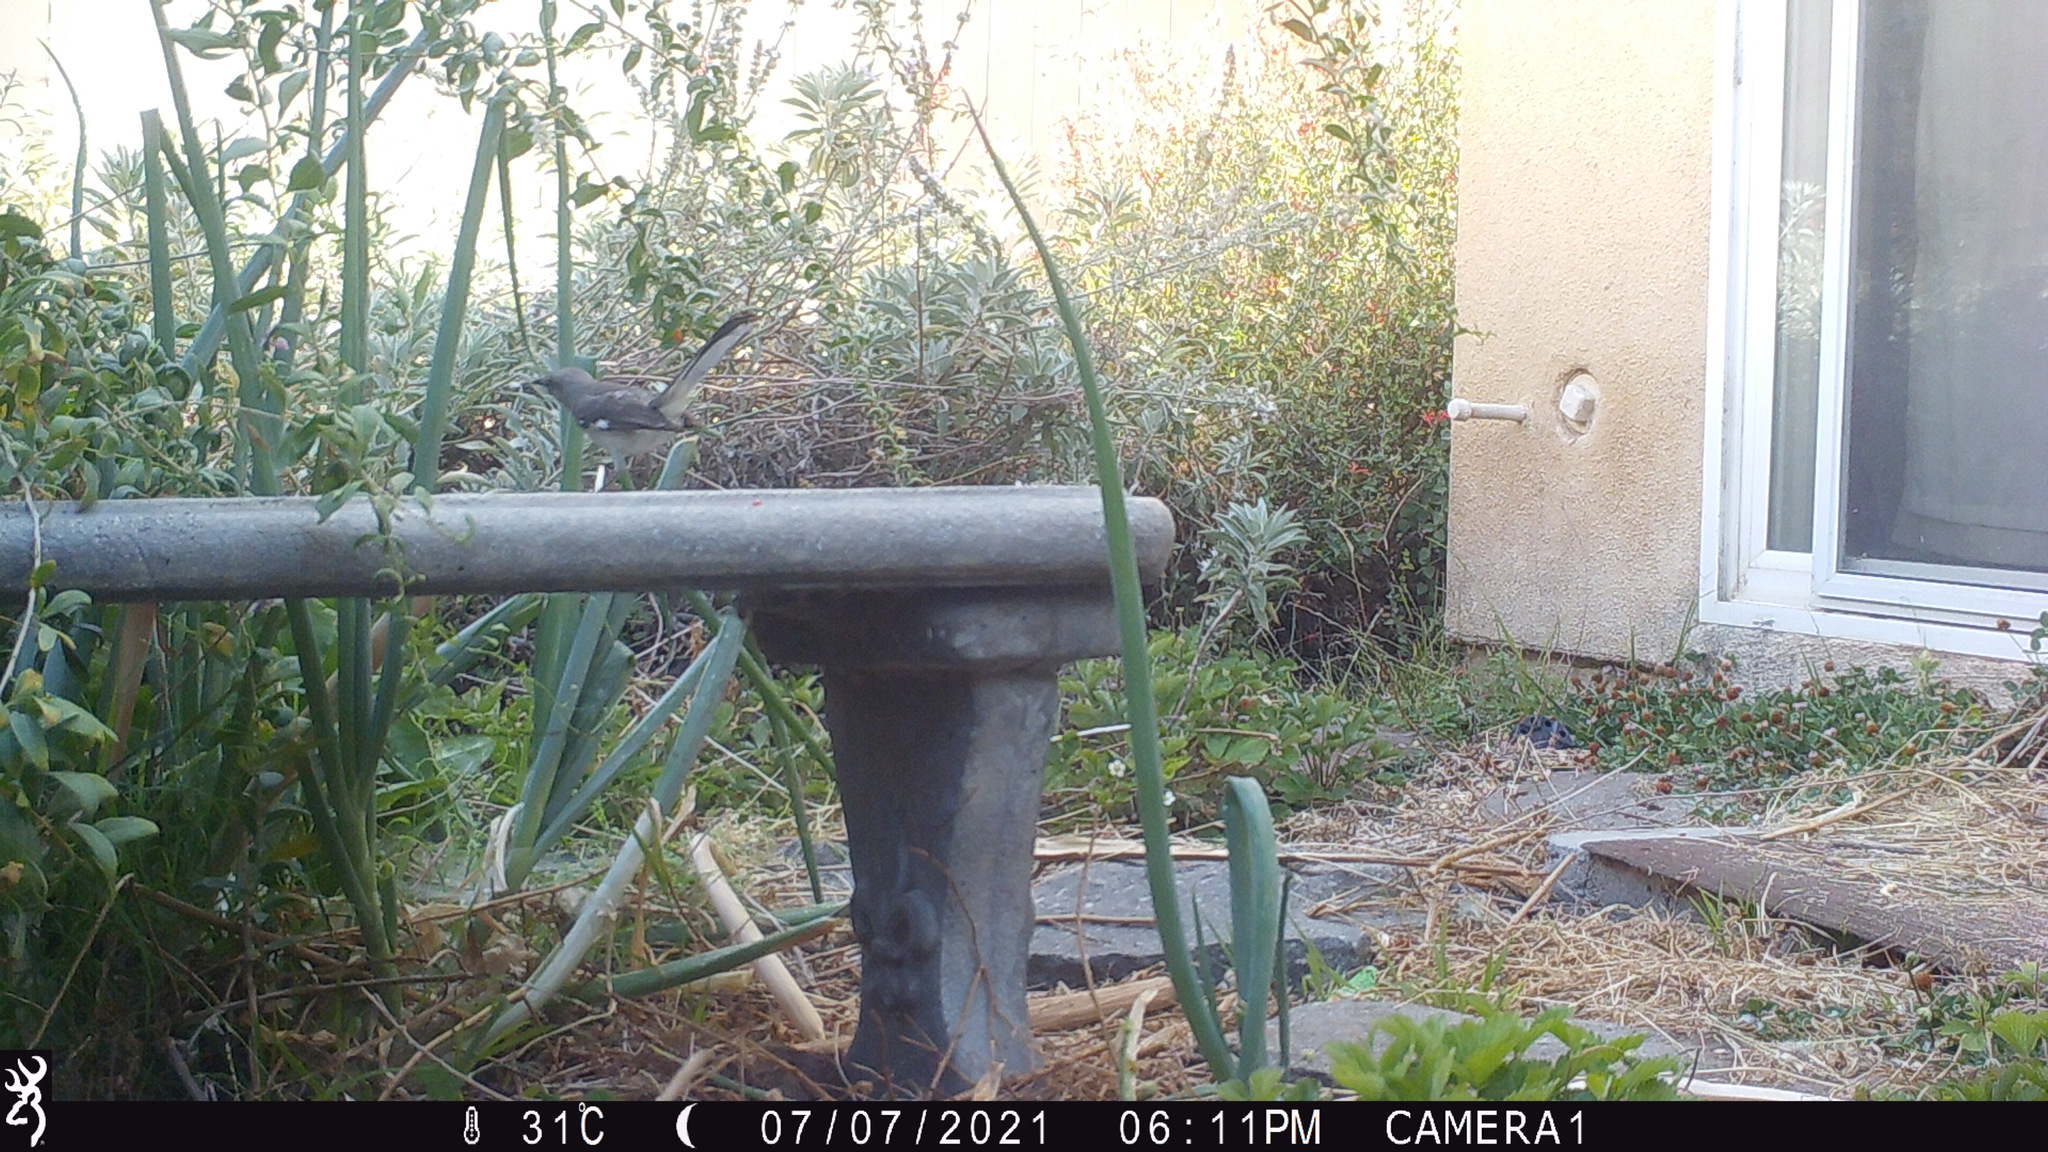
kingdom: Animalia
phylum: Chordata
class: Aves
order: Passeriformes
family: Mimidae
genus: Mimus
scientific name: Mimus polyglottos
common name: Northern mockingbird
